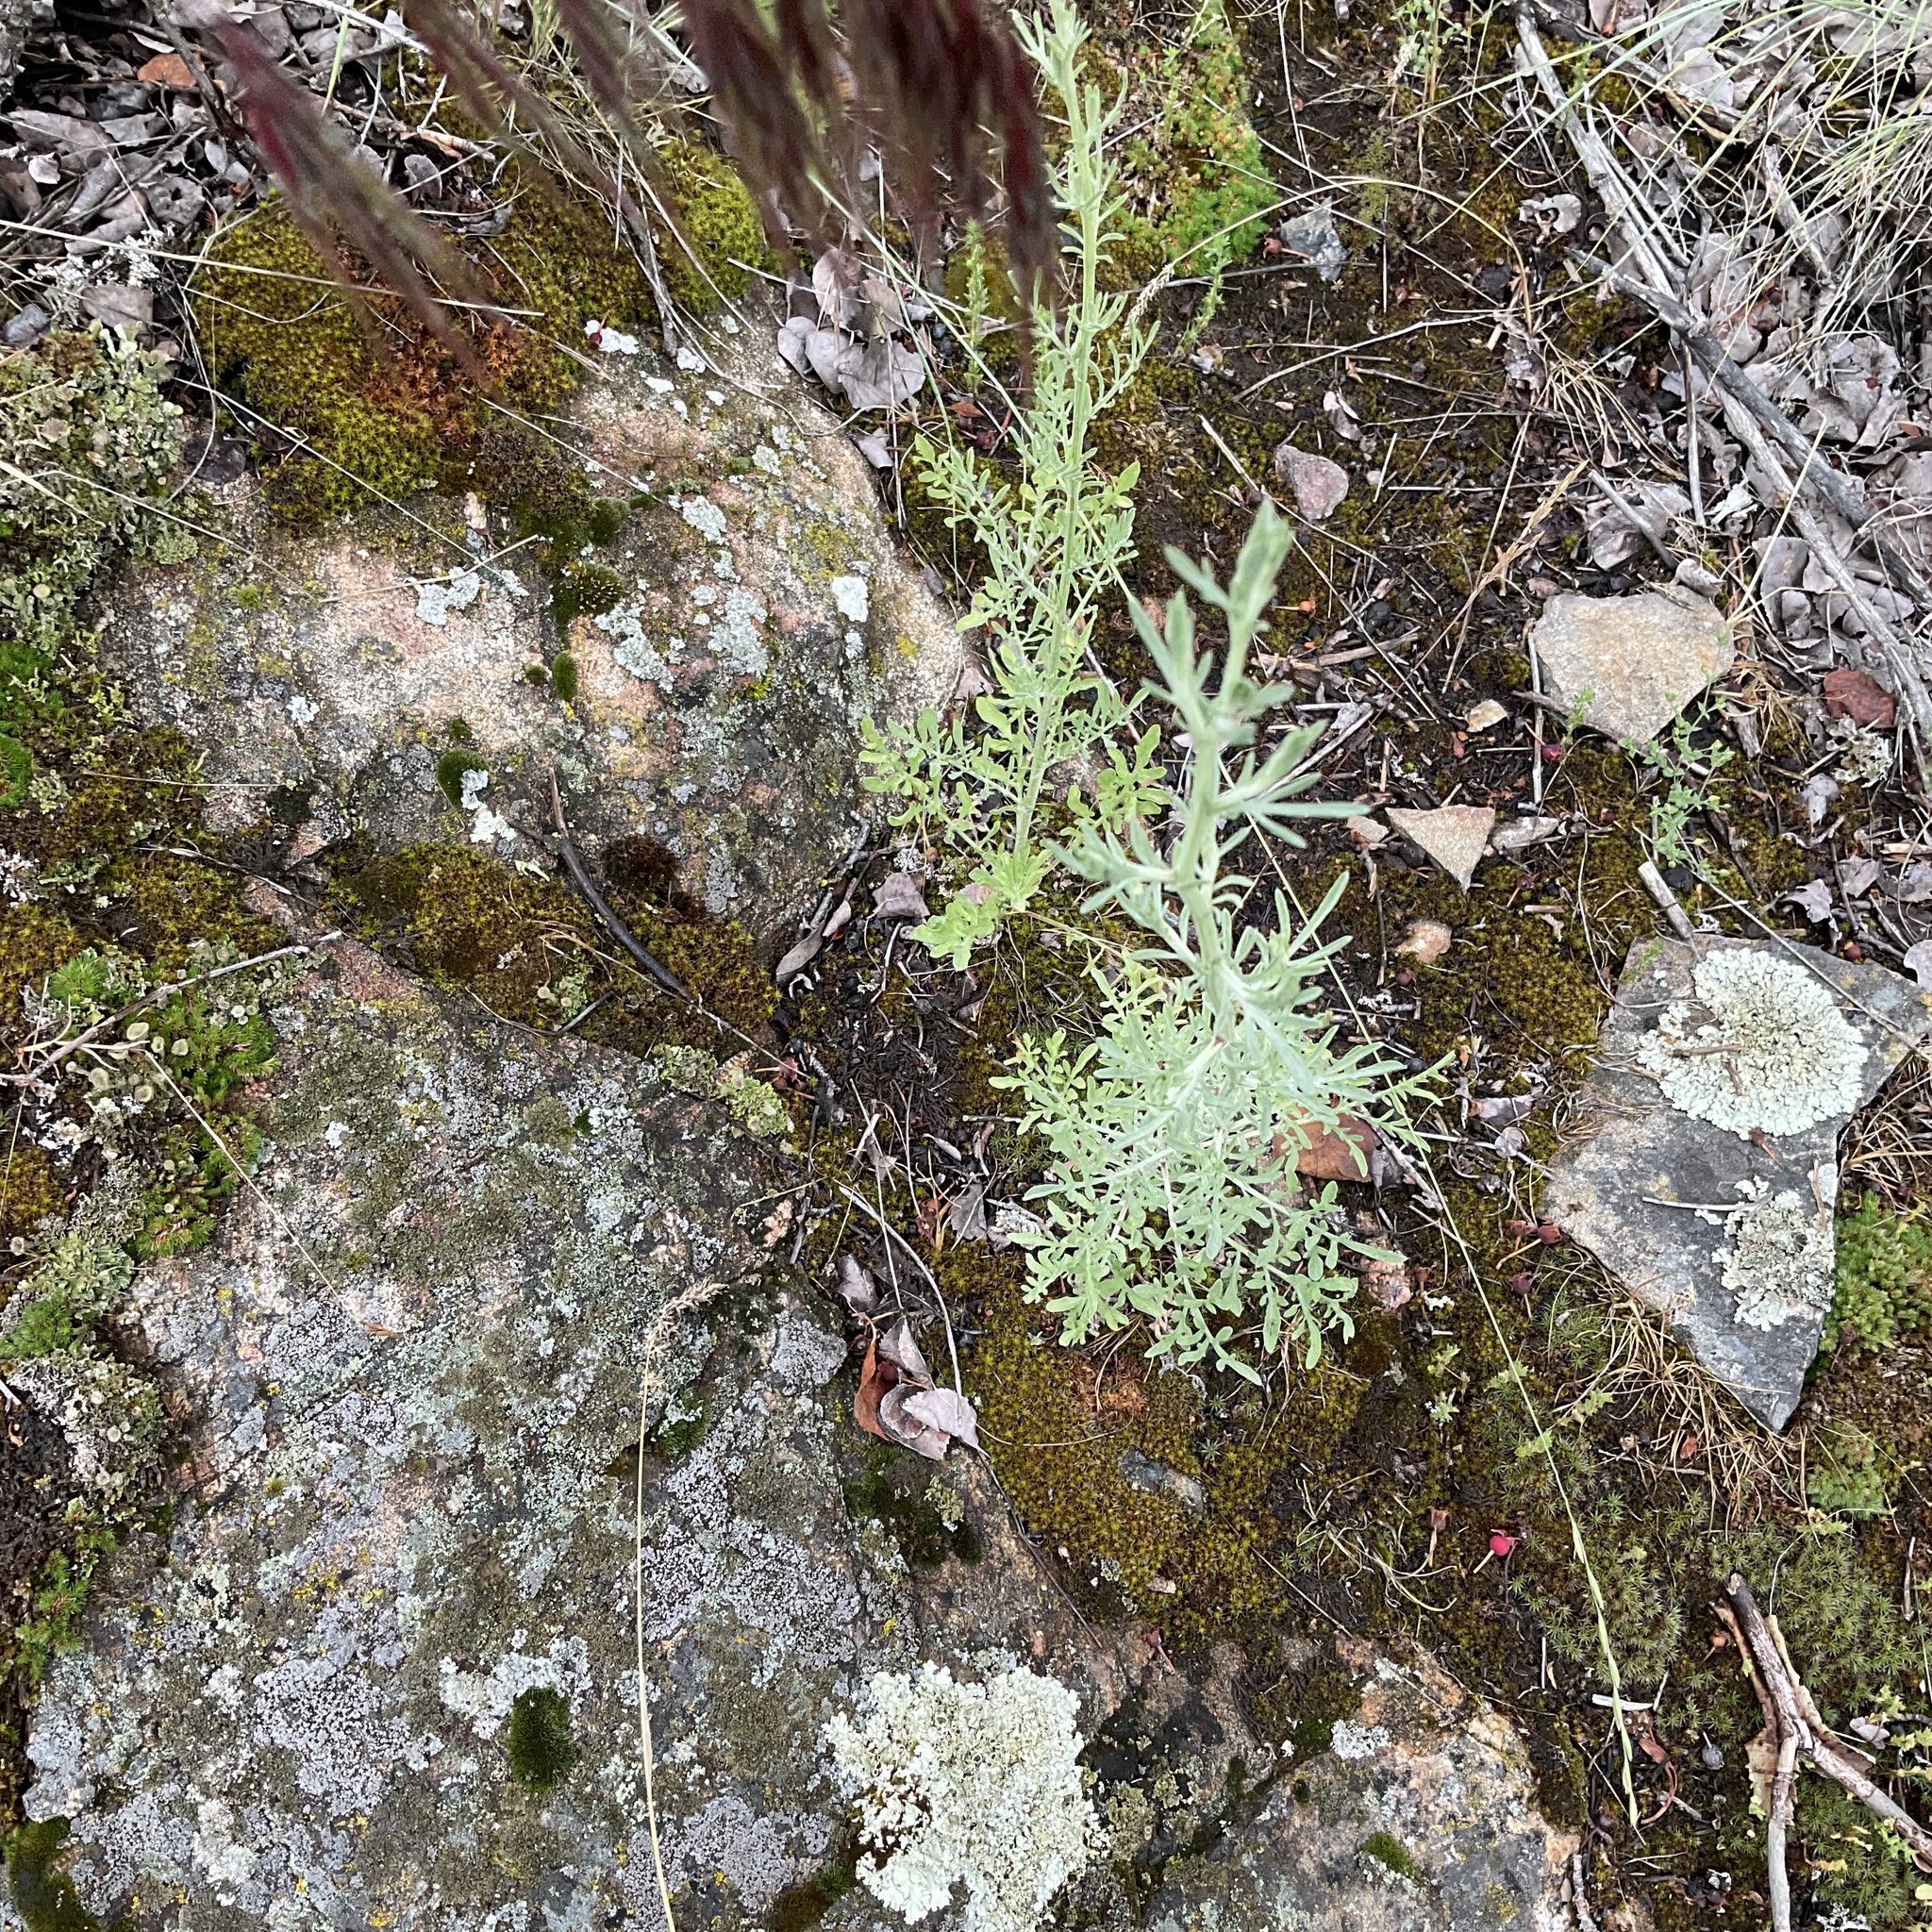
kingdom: Plantae
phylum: Tracheophyta
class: Magnoliopsida
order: Asterales
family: Asteraceae
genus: Centaurea
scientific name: Centaurea diffusa
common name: Diffuse knapweed
